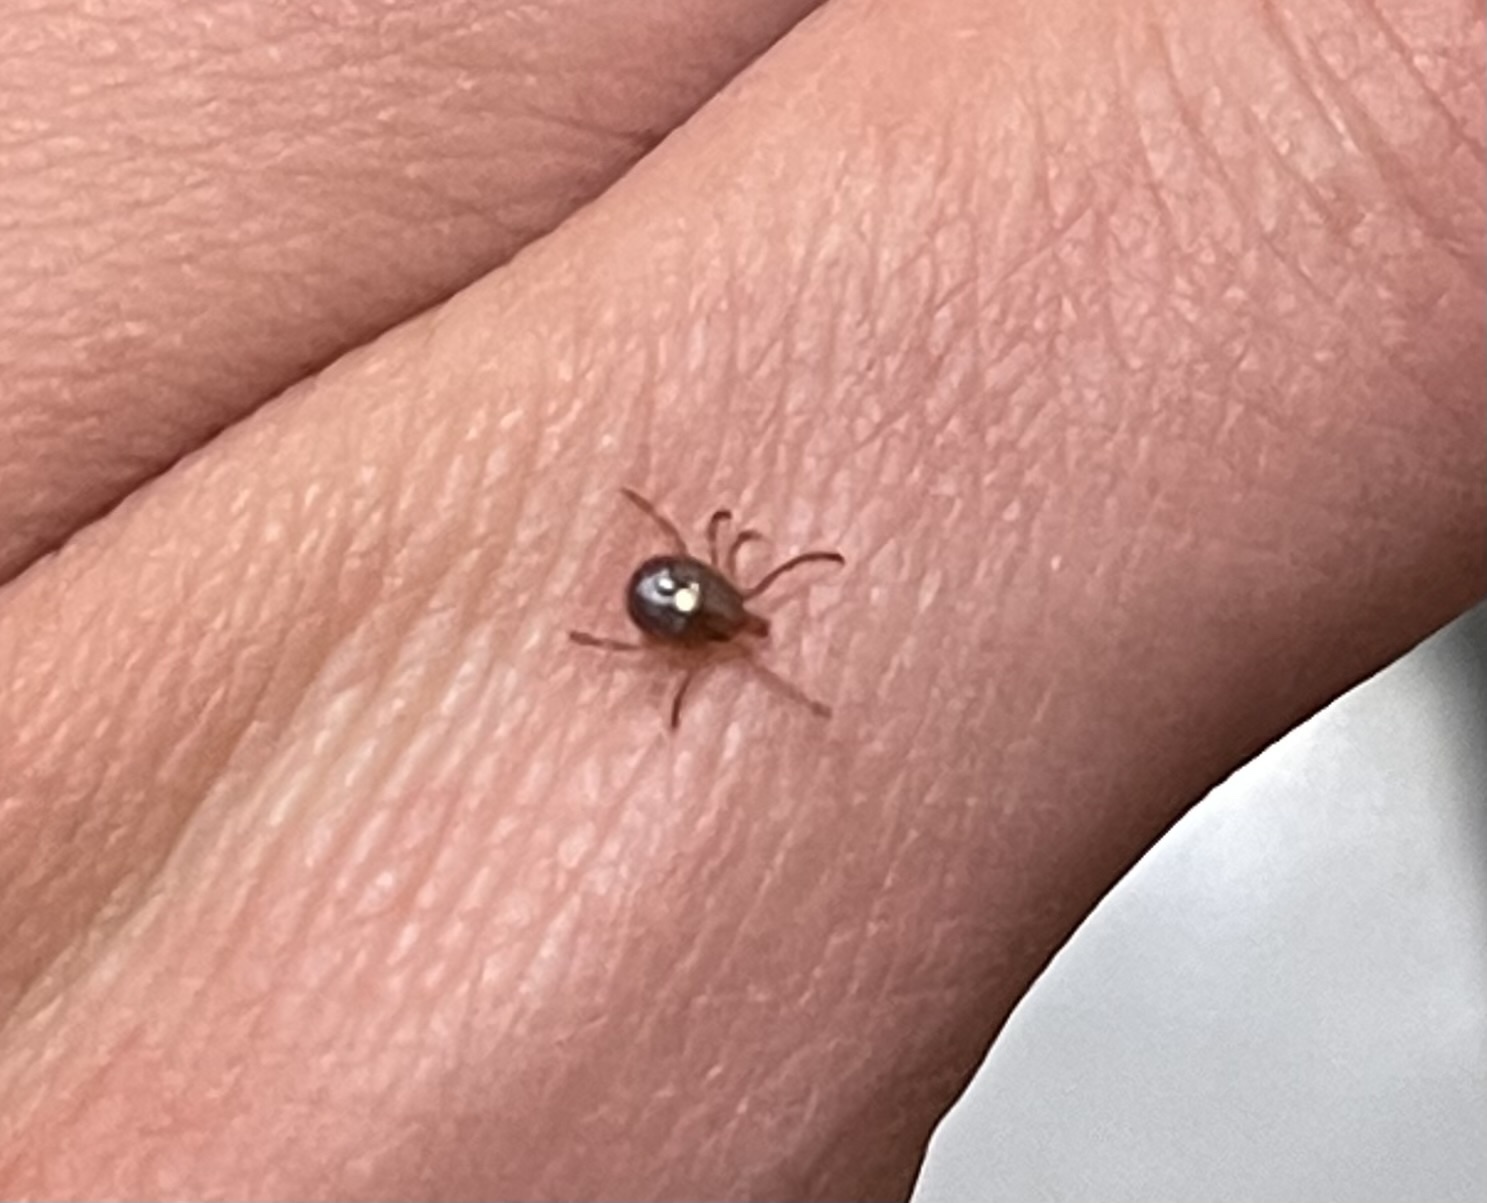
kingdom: Animalia
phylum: Arthropoda
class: Arachnida
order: Ixodida
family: Ixodidae
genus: Amblyomma
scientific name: Amblyomma americanum
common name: Lone star tick
